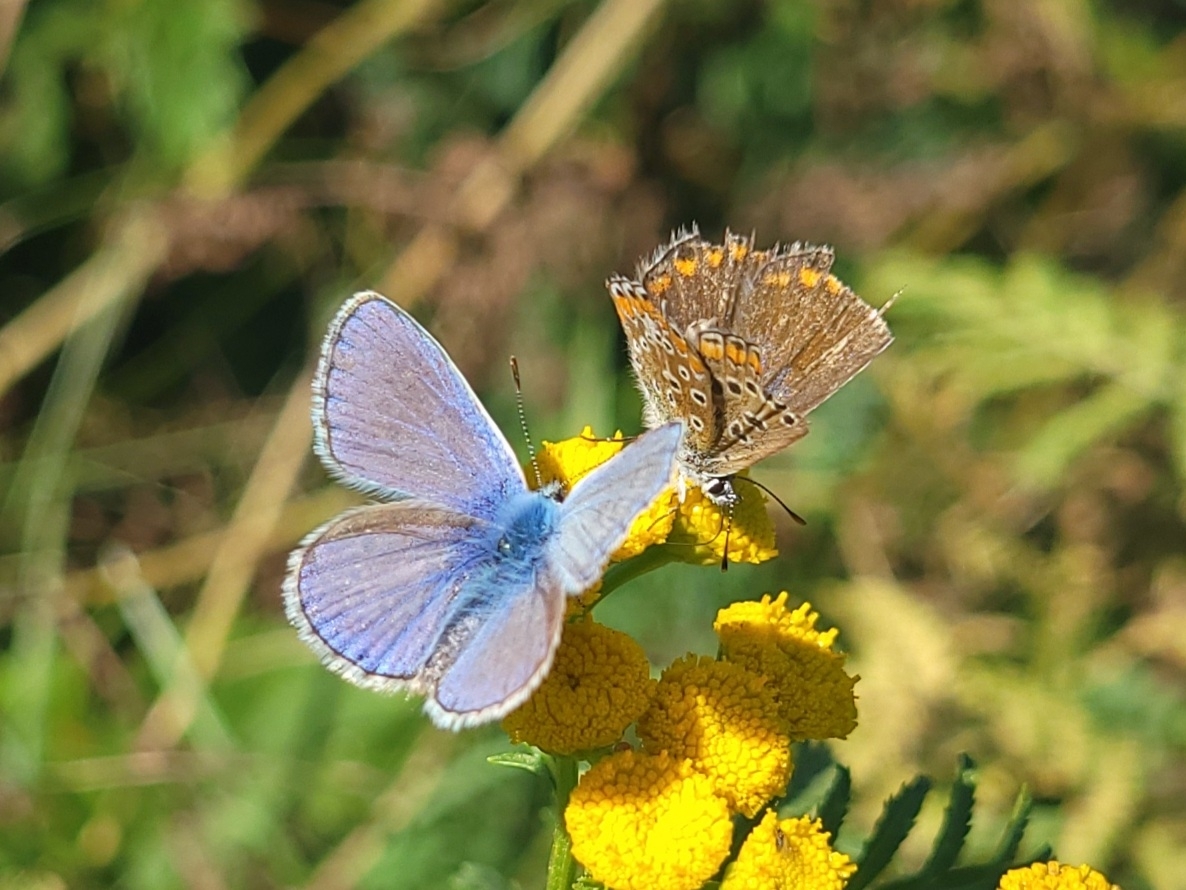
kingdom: Animalia
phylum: Arthropoda
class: Insecta
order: Lepidoptera
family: Lycaenidae
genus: Polyommatus
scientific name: Polyommatus icarus
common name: Common blue
